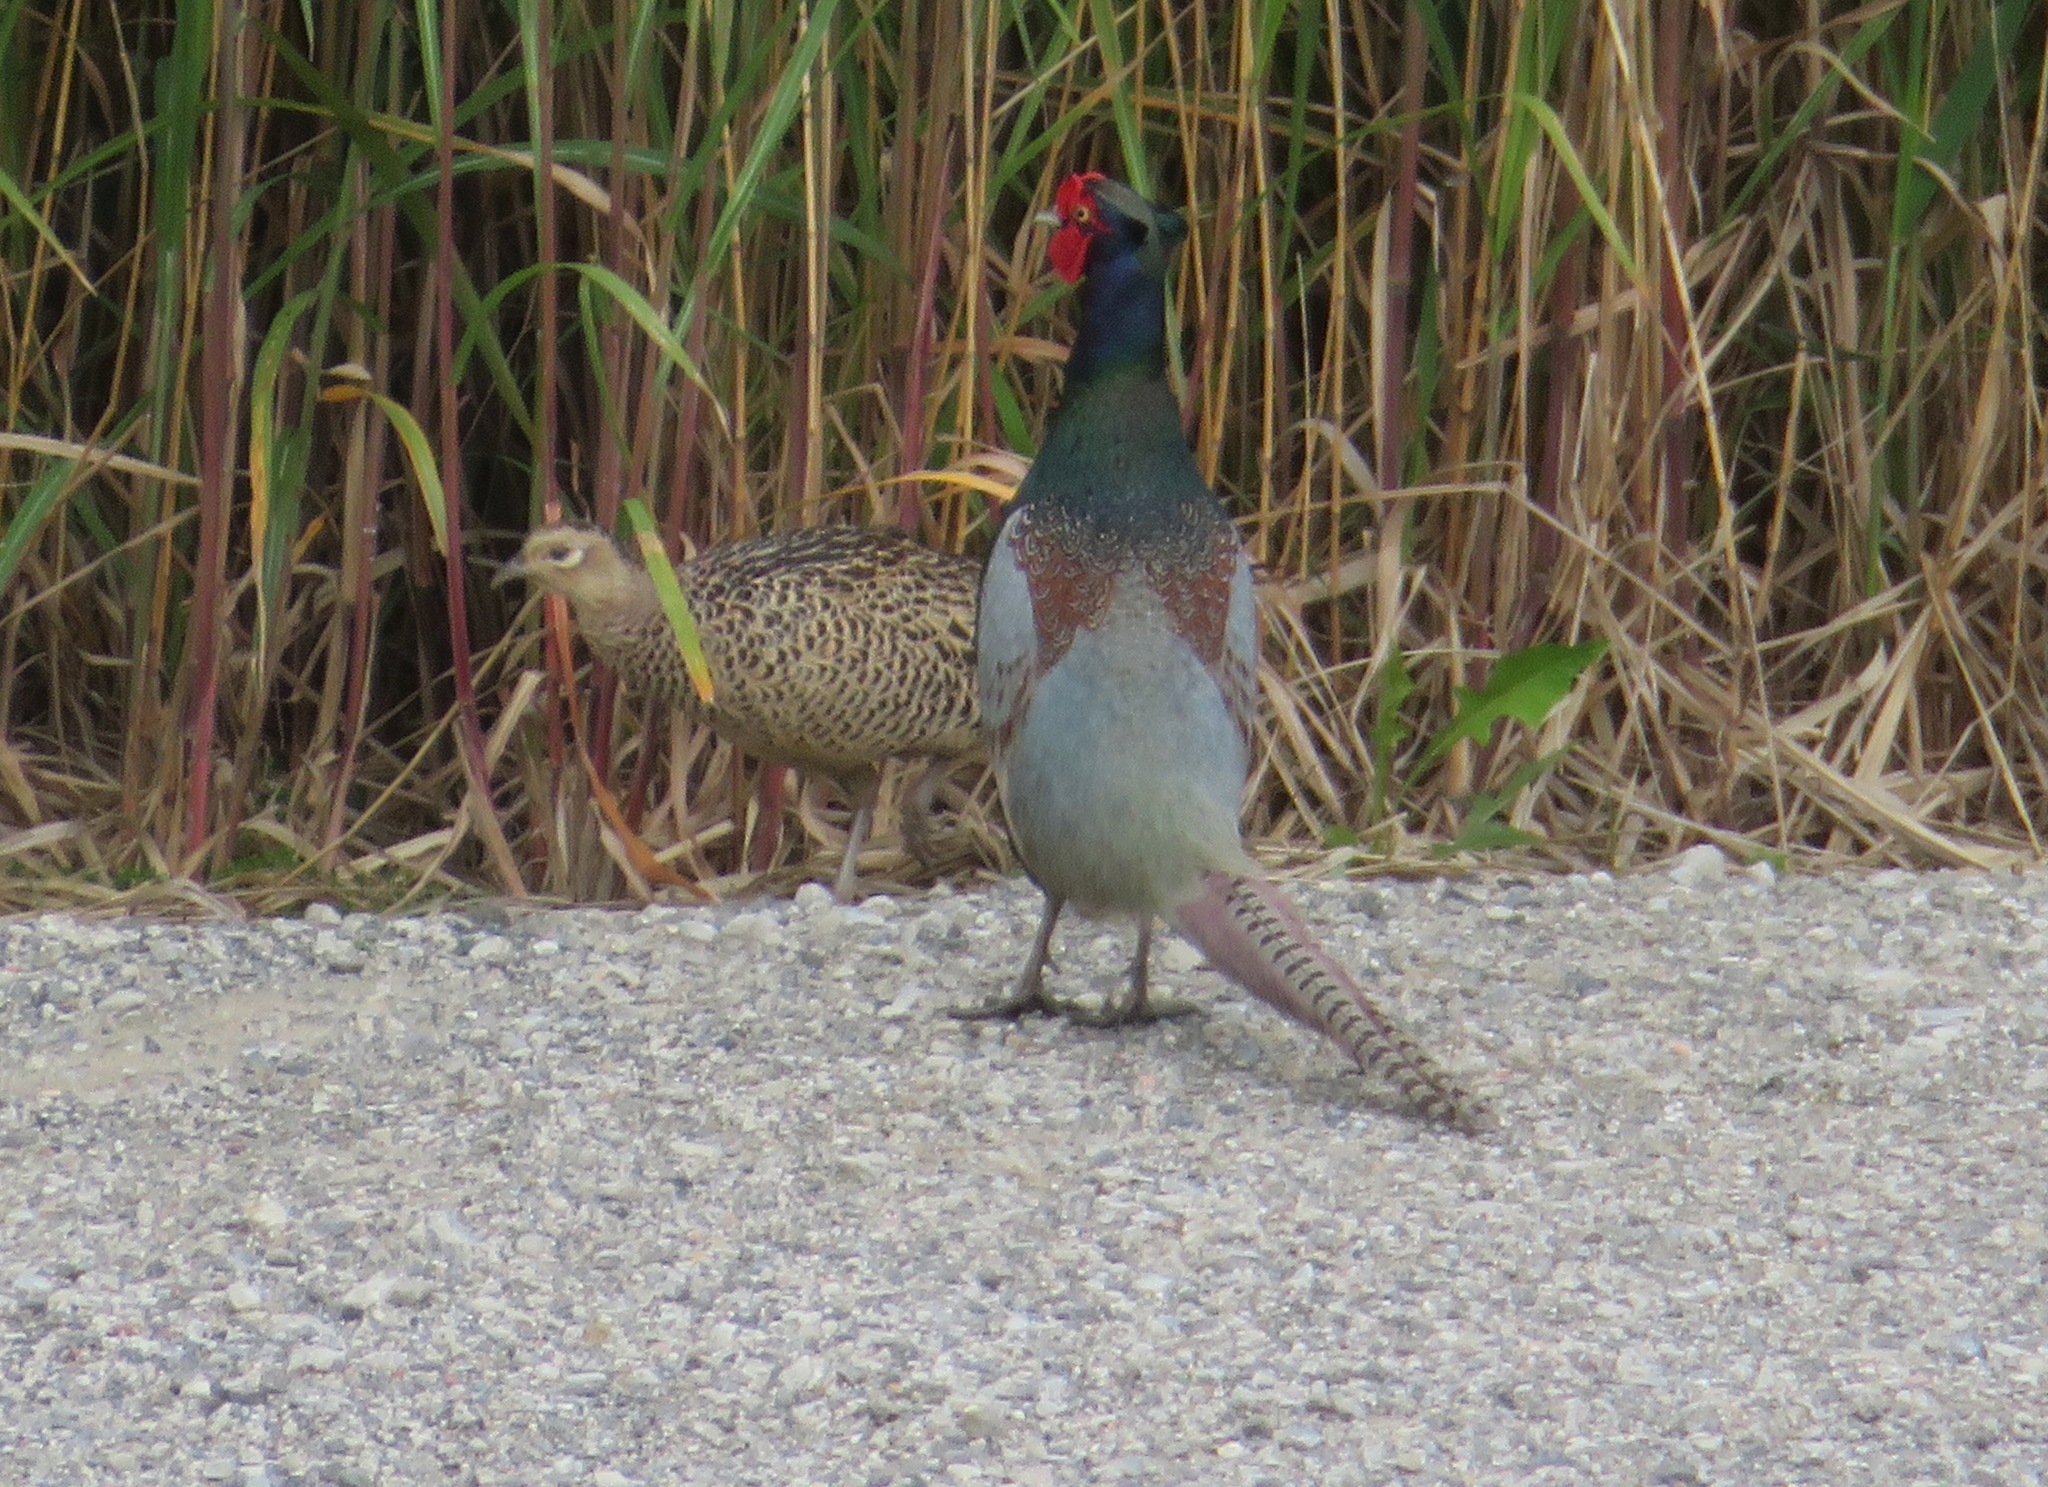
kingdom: Animalia
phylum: Chordata
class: Aves
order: Galliformes
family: Phasianidae
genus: Phasianus
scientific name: Phasianus versicolor
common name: Green pheasant
